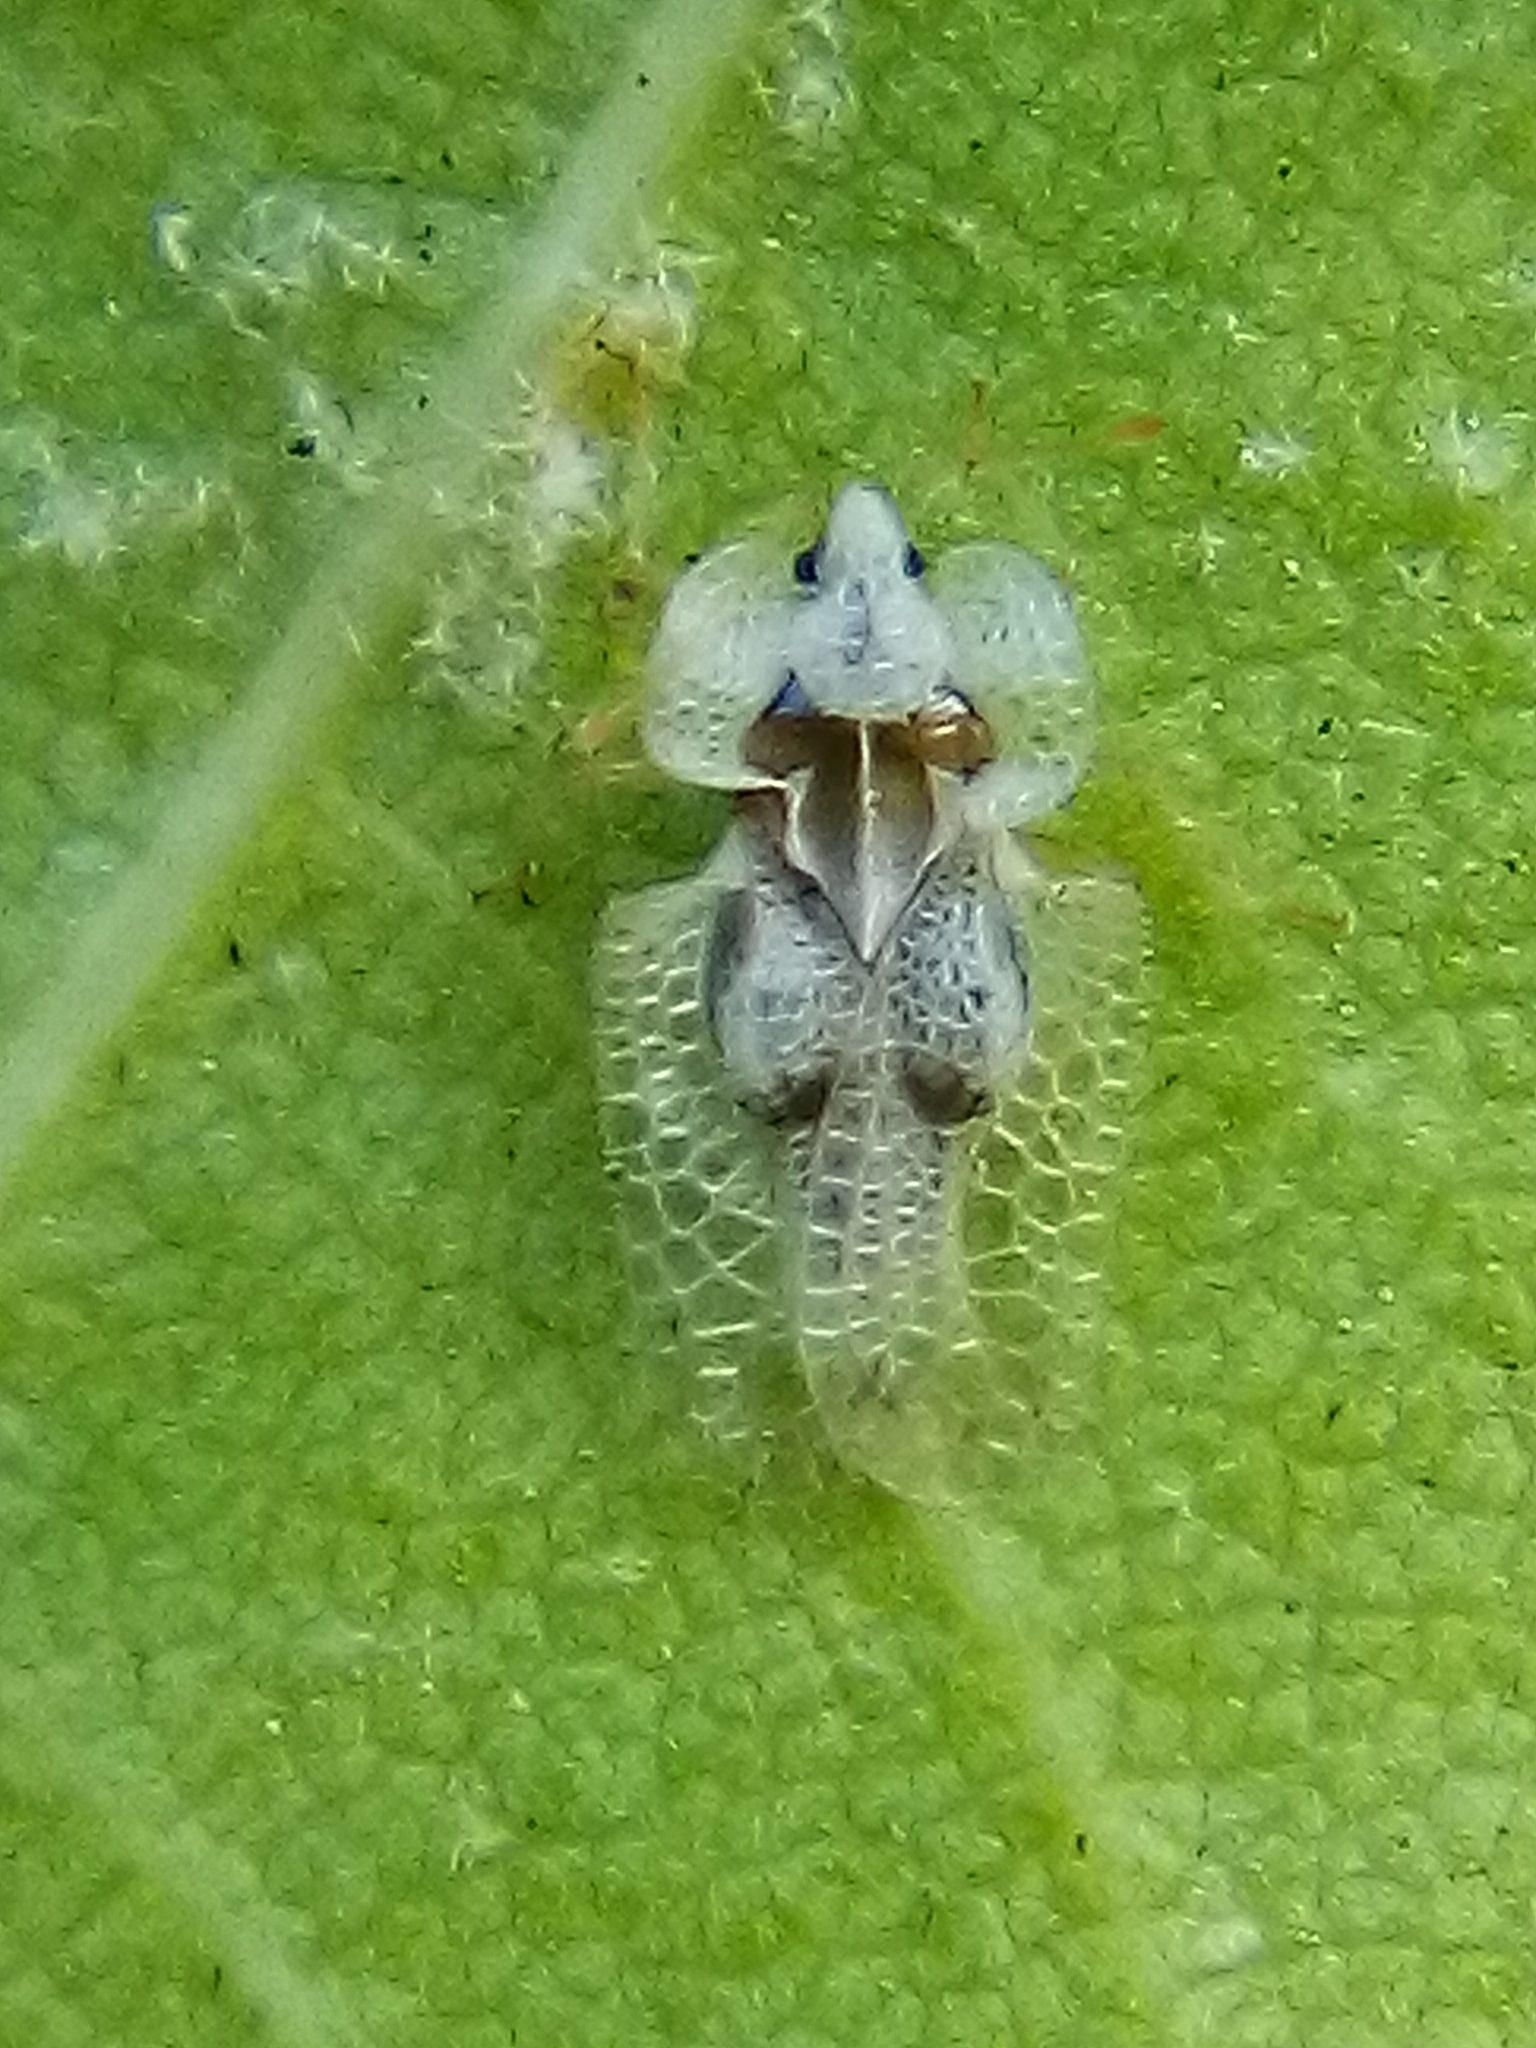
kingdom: Animalia
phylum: Arthropoda
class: Insecta
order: Hemiptera
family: Tingidae
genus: Corythucha
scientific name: Corythucha ciliata
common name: Sycamore lace bug
